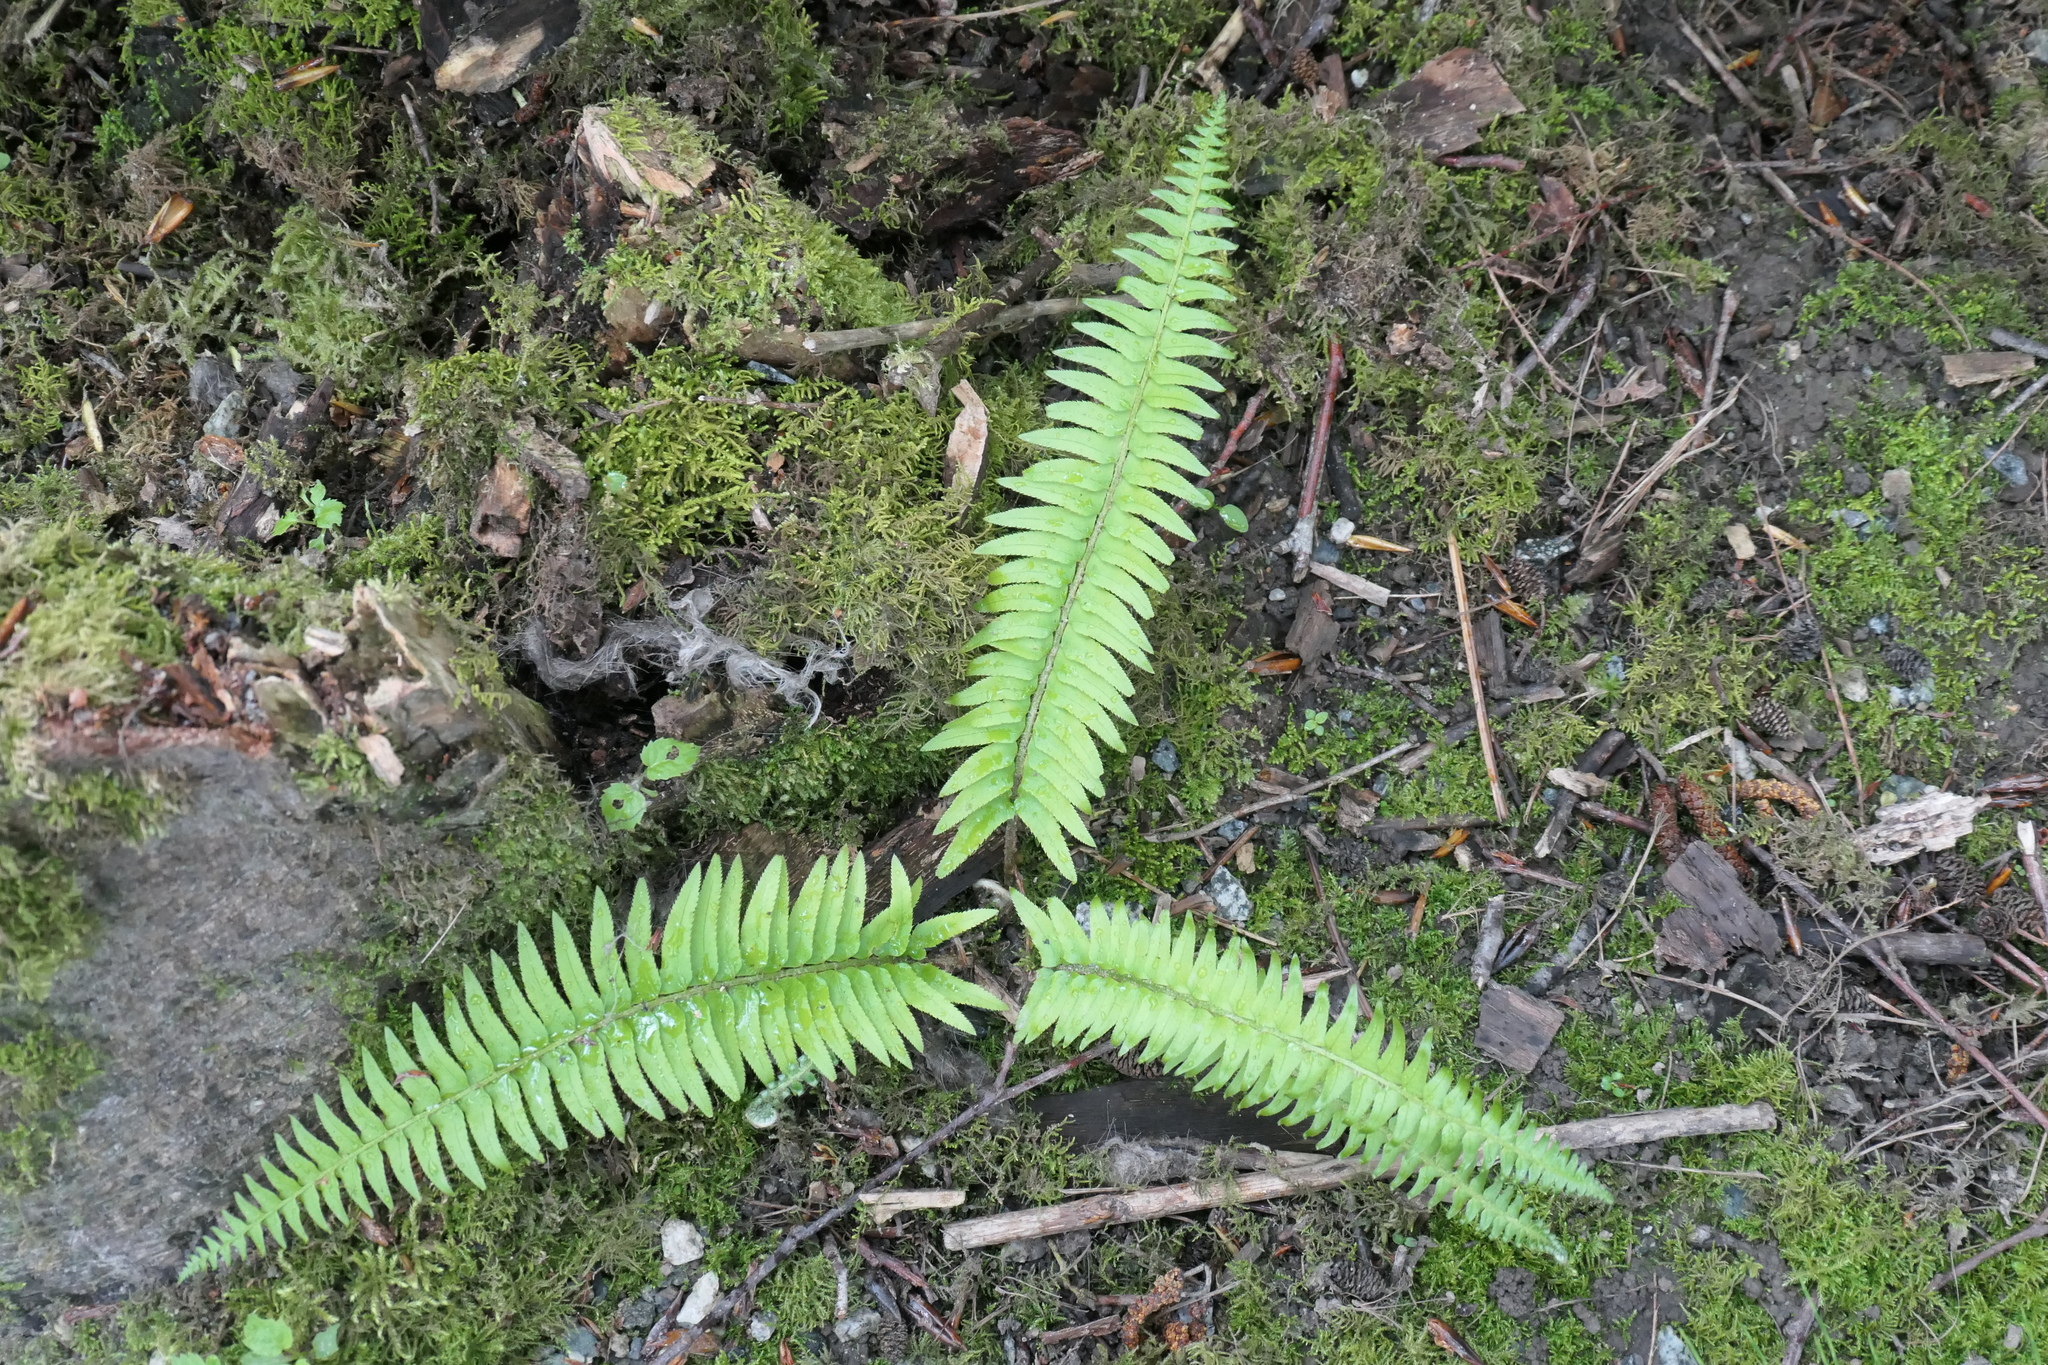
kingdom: Plantae
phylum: Tracheophyta
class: Polypodiopsida
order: Polypodiales
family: Dryopteridaceae
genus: Polystichum
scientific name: Polystichum munitum
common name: Western sword-fern
